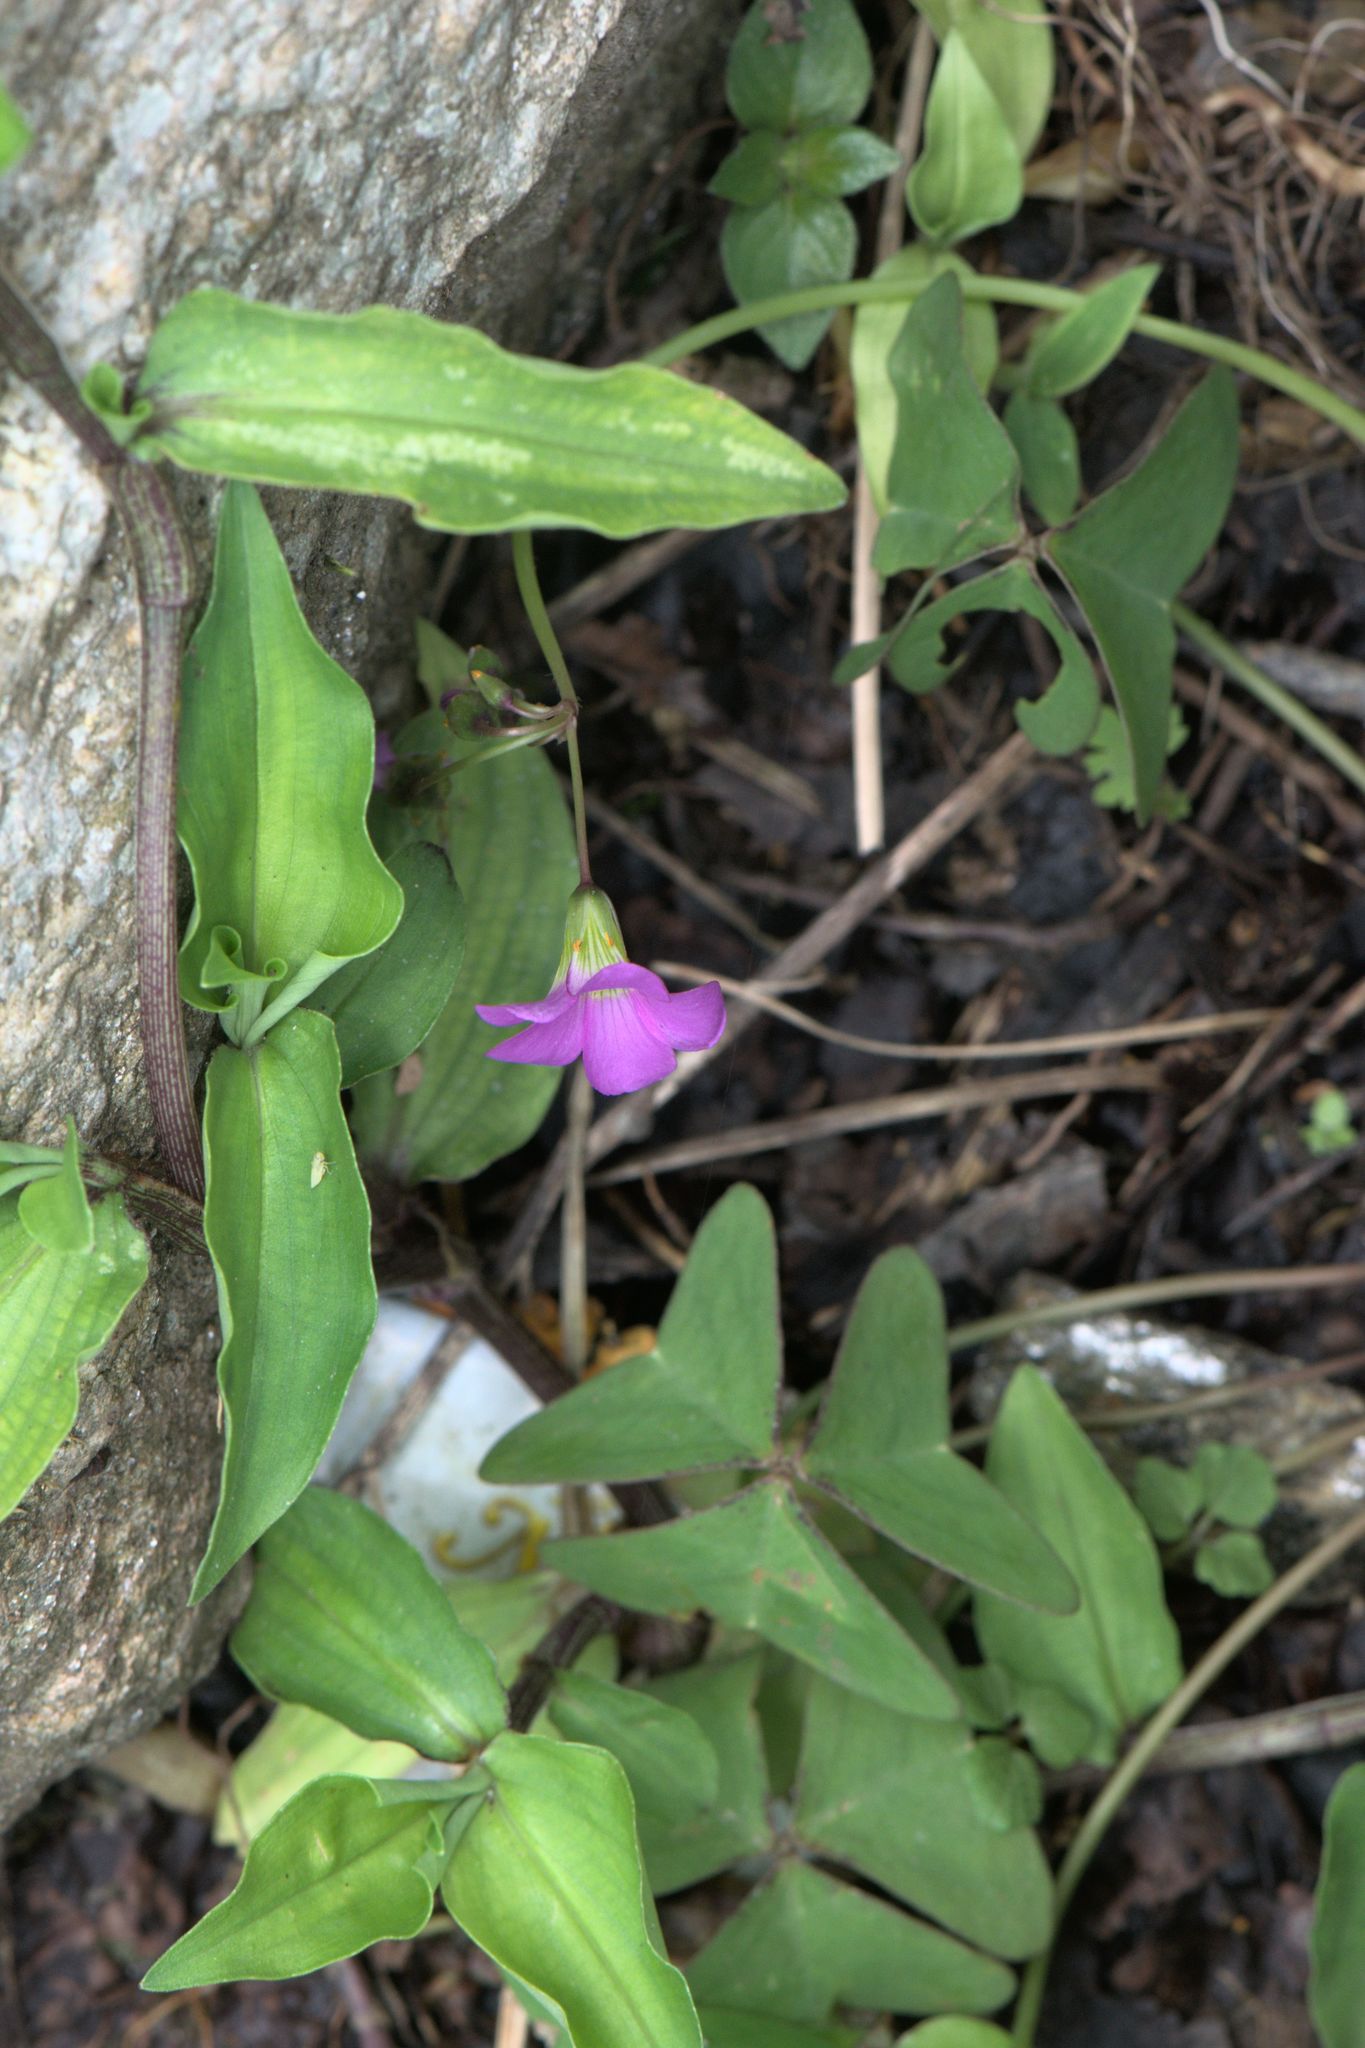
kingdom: Plantae
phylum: Tracheophyta
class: Magnoliopsida
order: Oxalidales
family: Oxalidaceae
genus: Oxalis
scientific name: Oxalis latifolia
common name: Garden pink-sorrel
